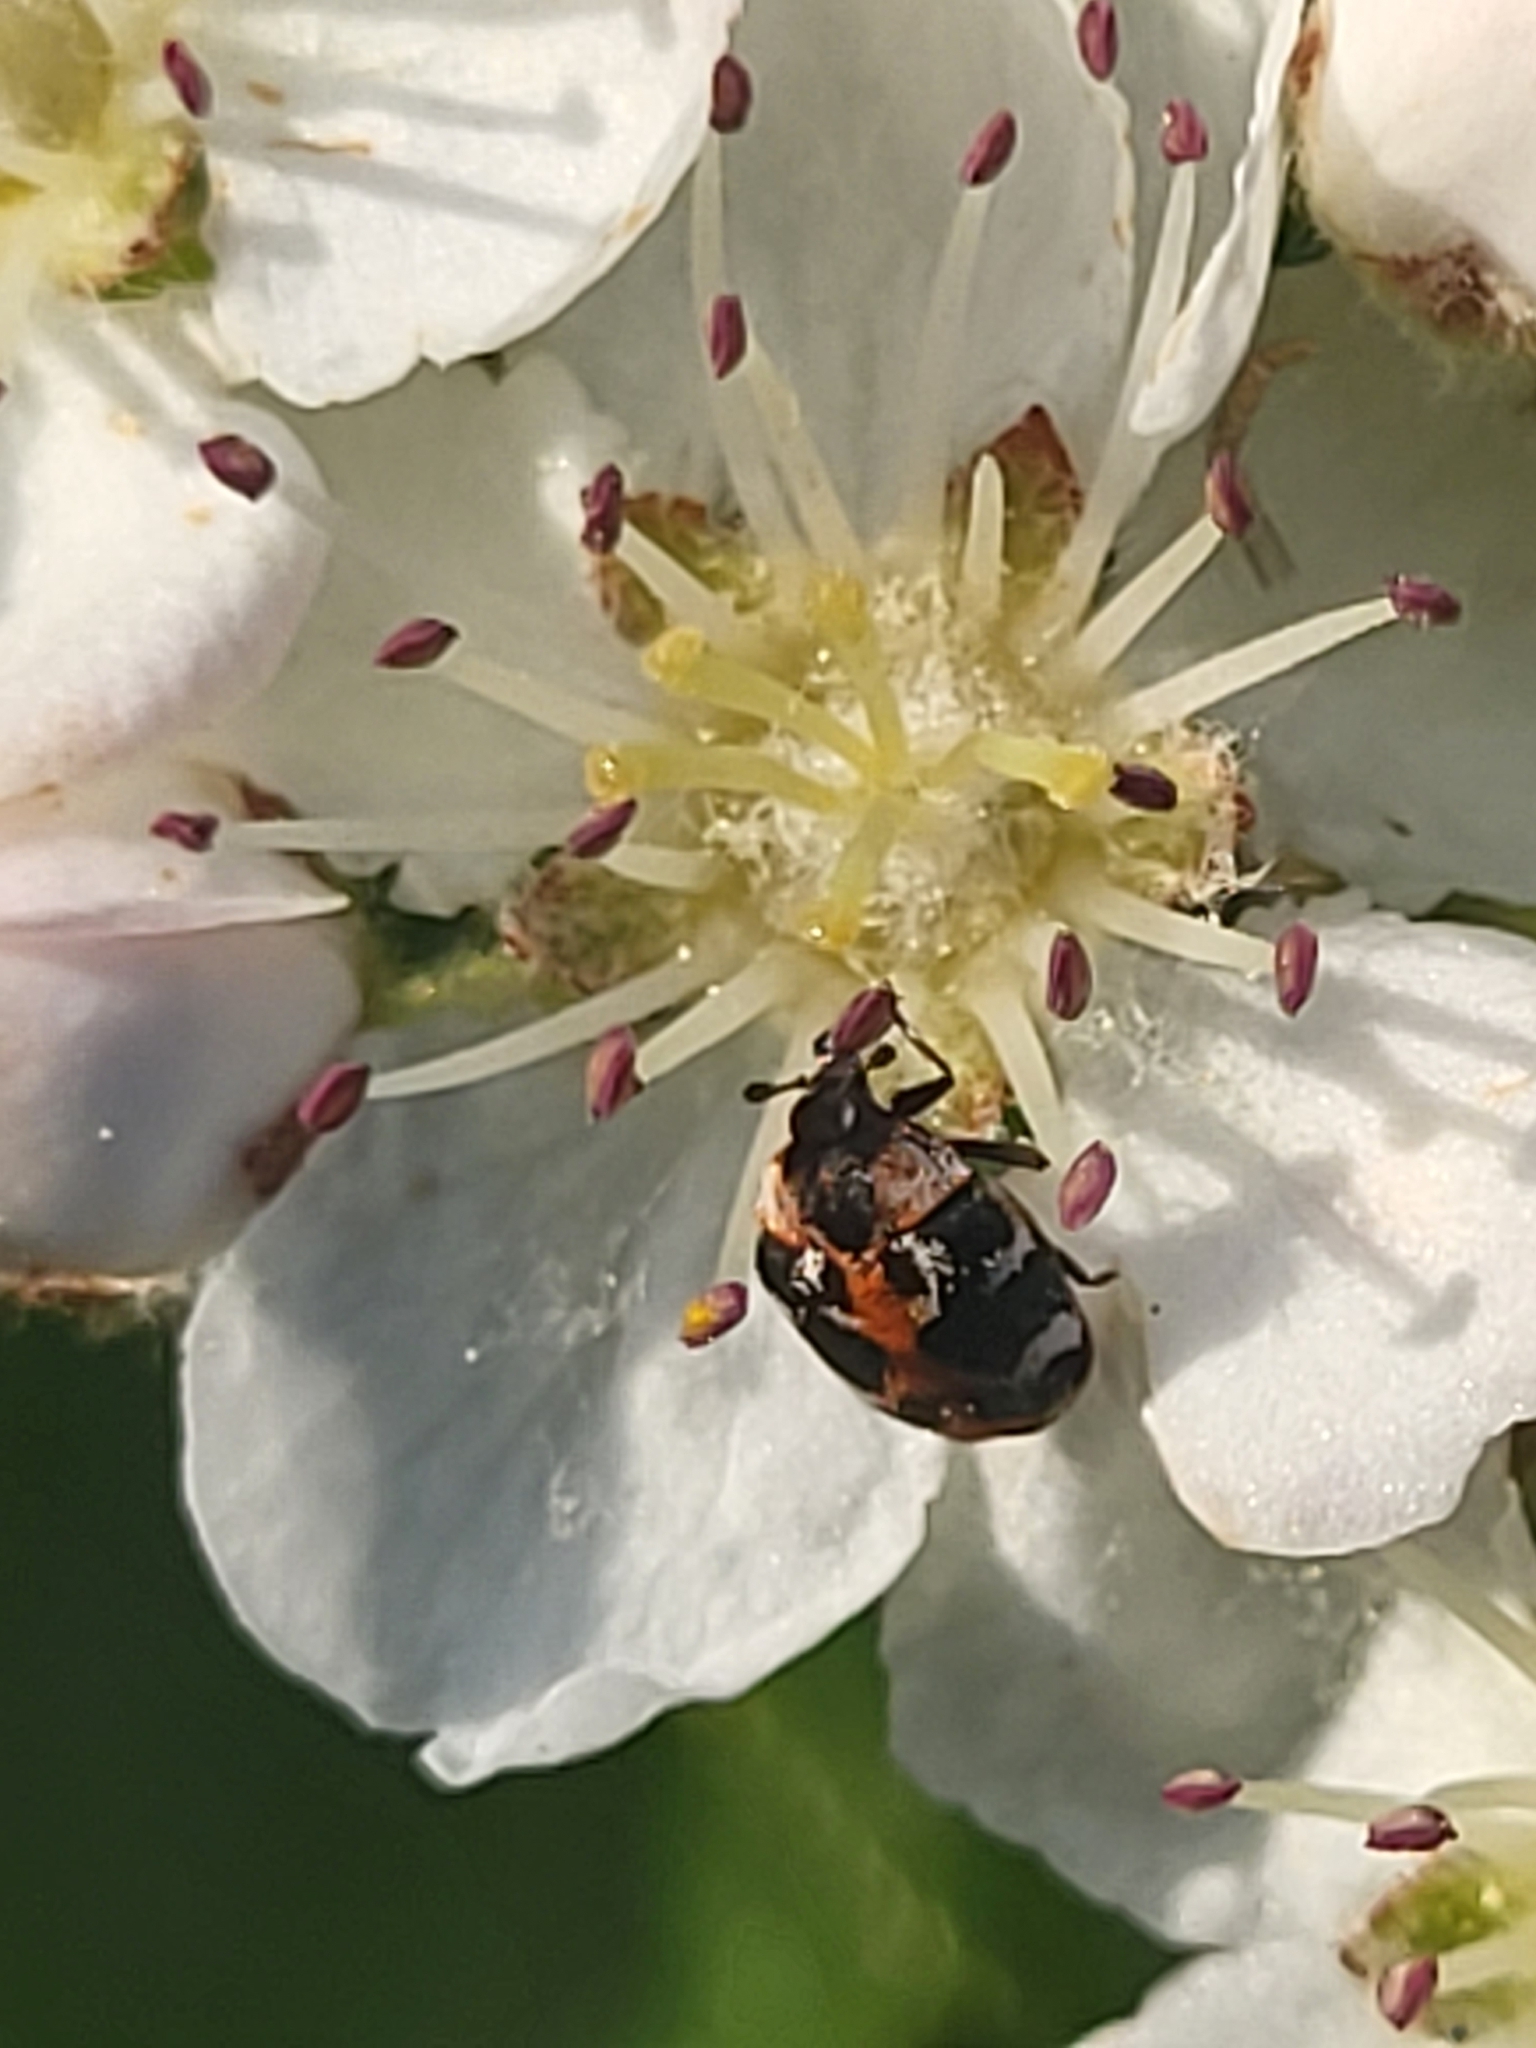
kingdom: Animalia
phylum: Arthropoda
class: Insecta
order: Coleoptera
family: Dermestidae
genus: Anthrenus
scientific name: Anthrenus scrophulariae
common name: Buffalo carpet beetle
